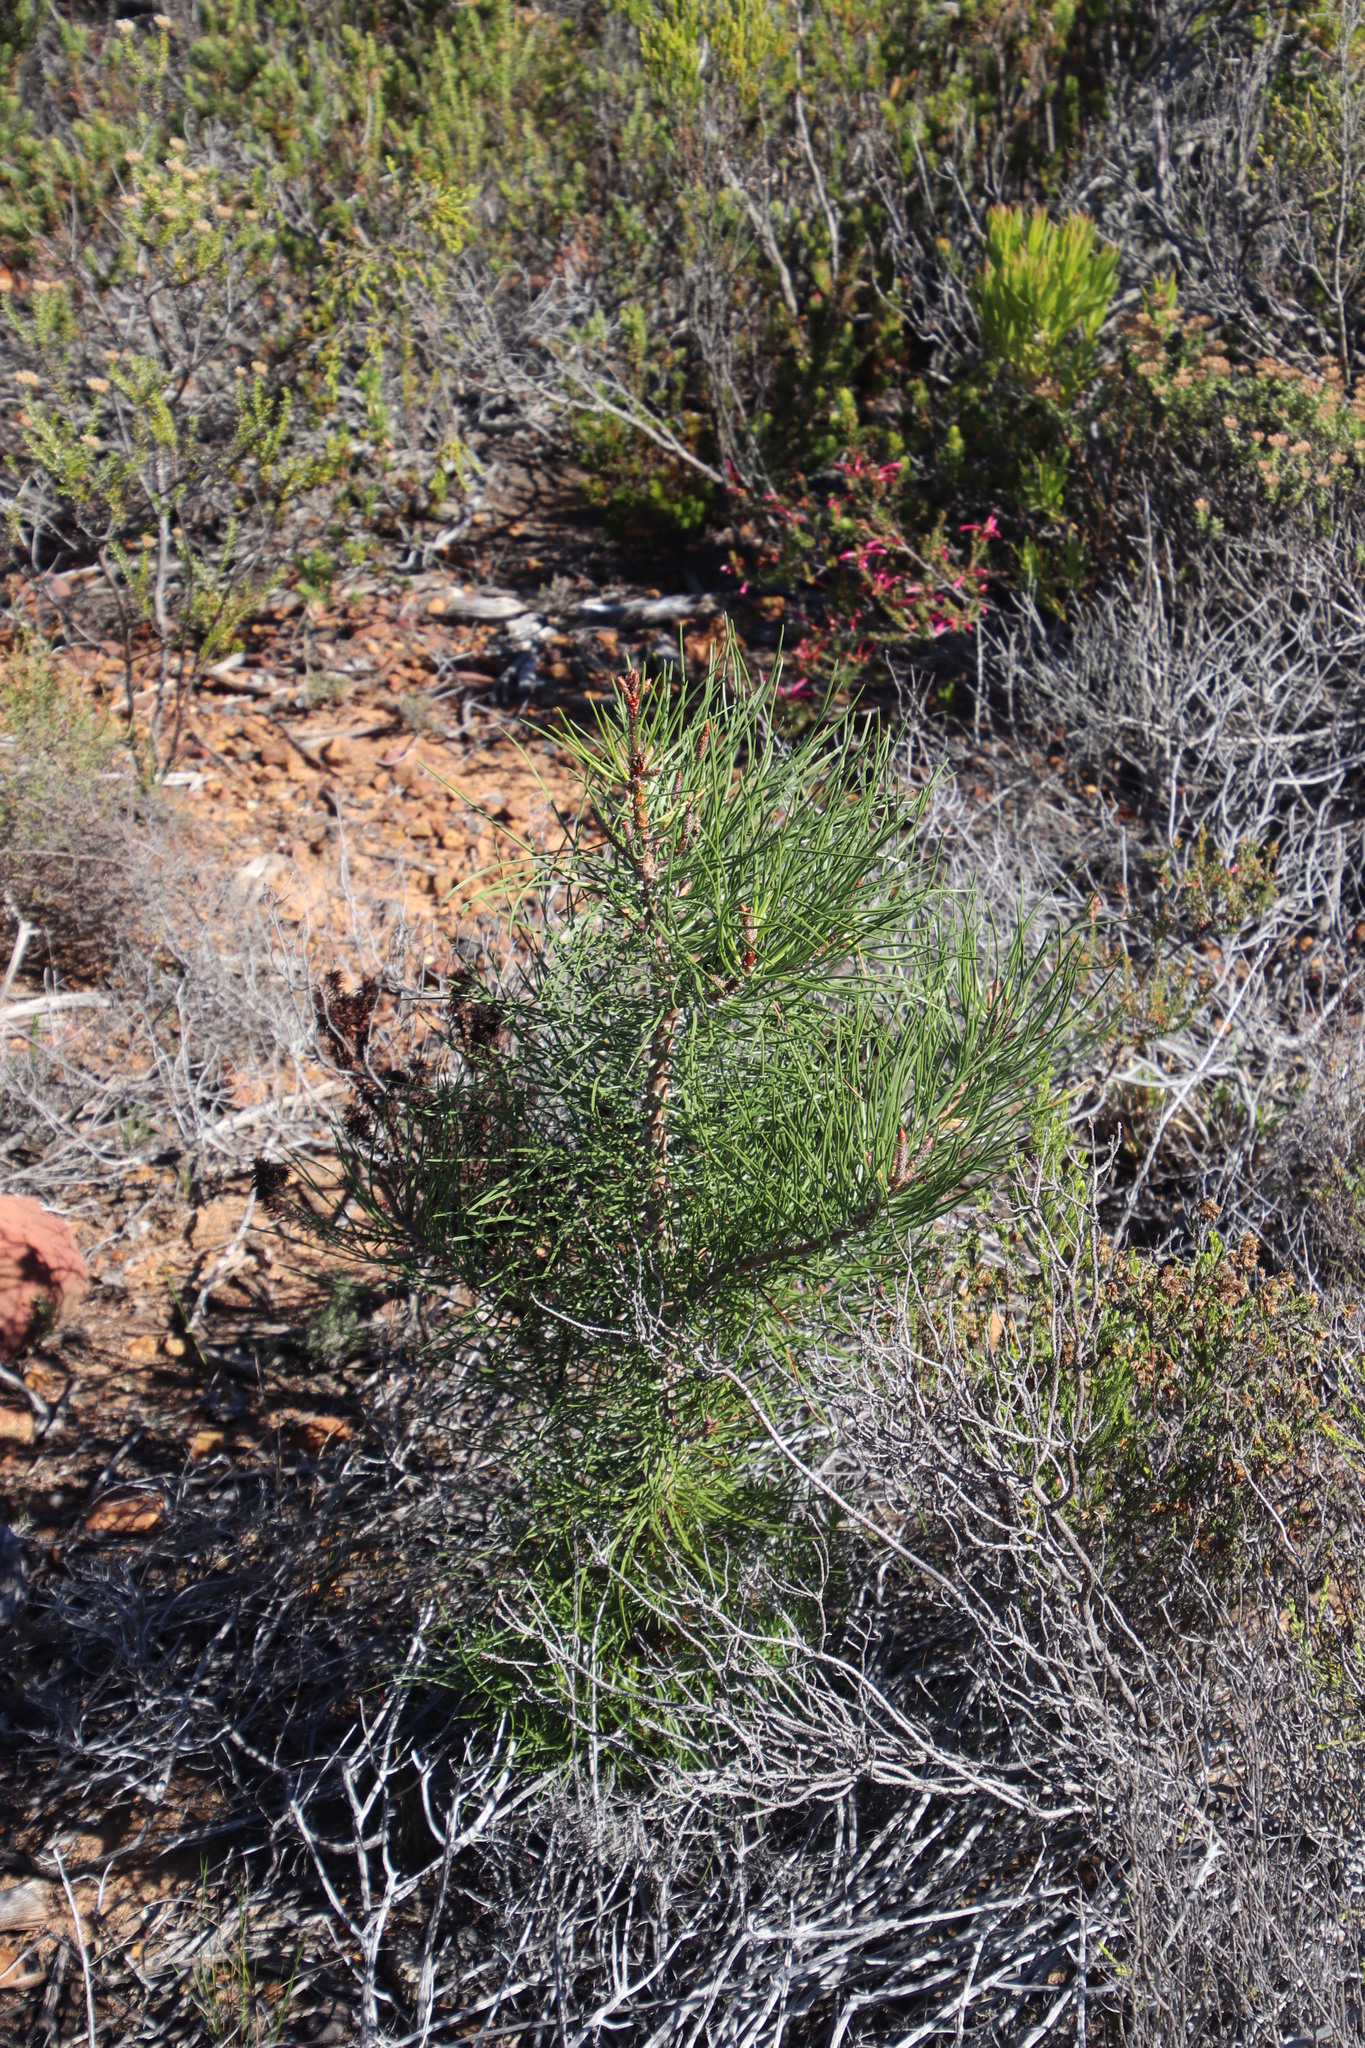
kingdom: Plantae
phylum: Tracheophyta
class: Pinopsida
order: Pinales
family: Pinaceae
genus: Pinus
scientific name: Pinus pinaster
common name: Maritime pine
